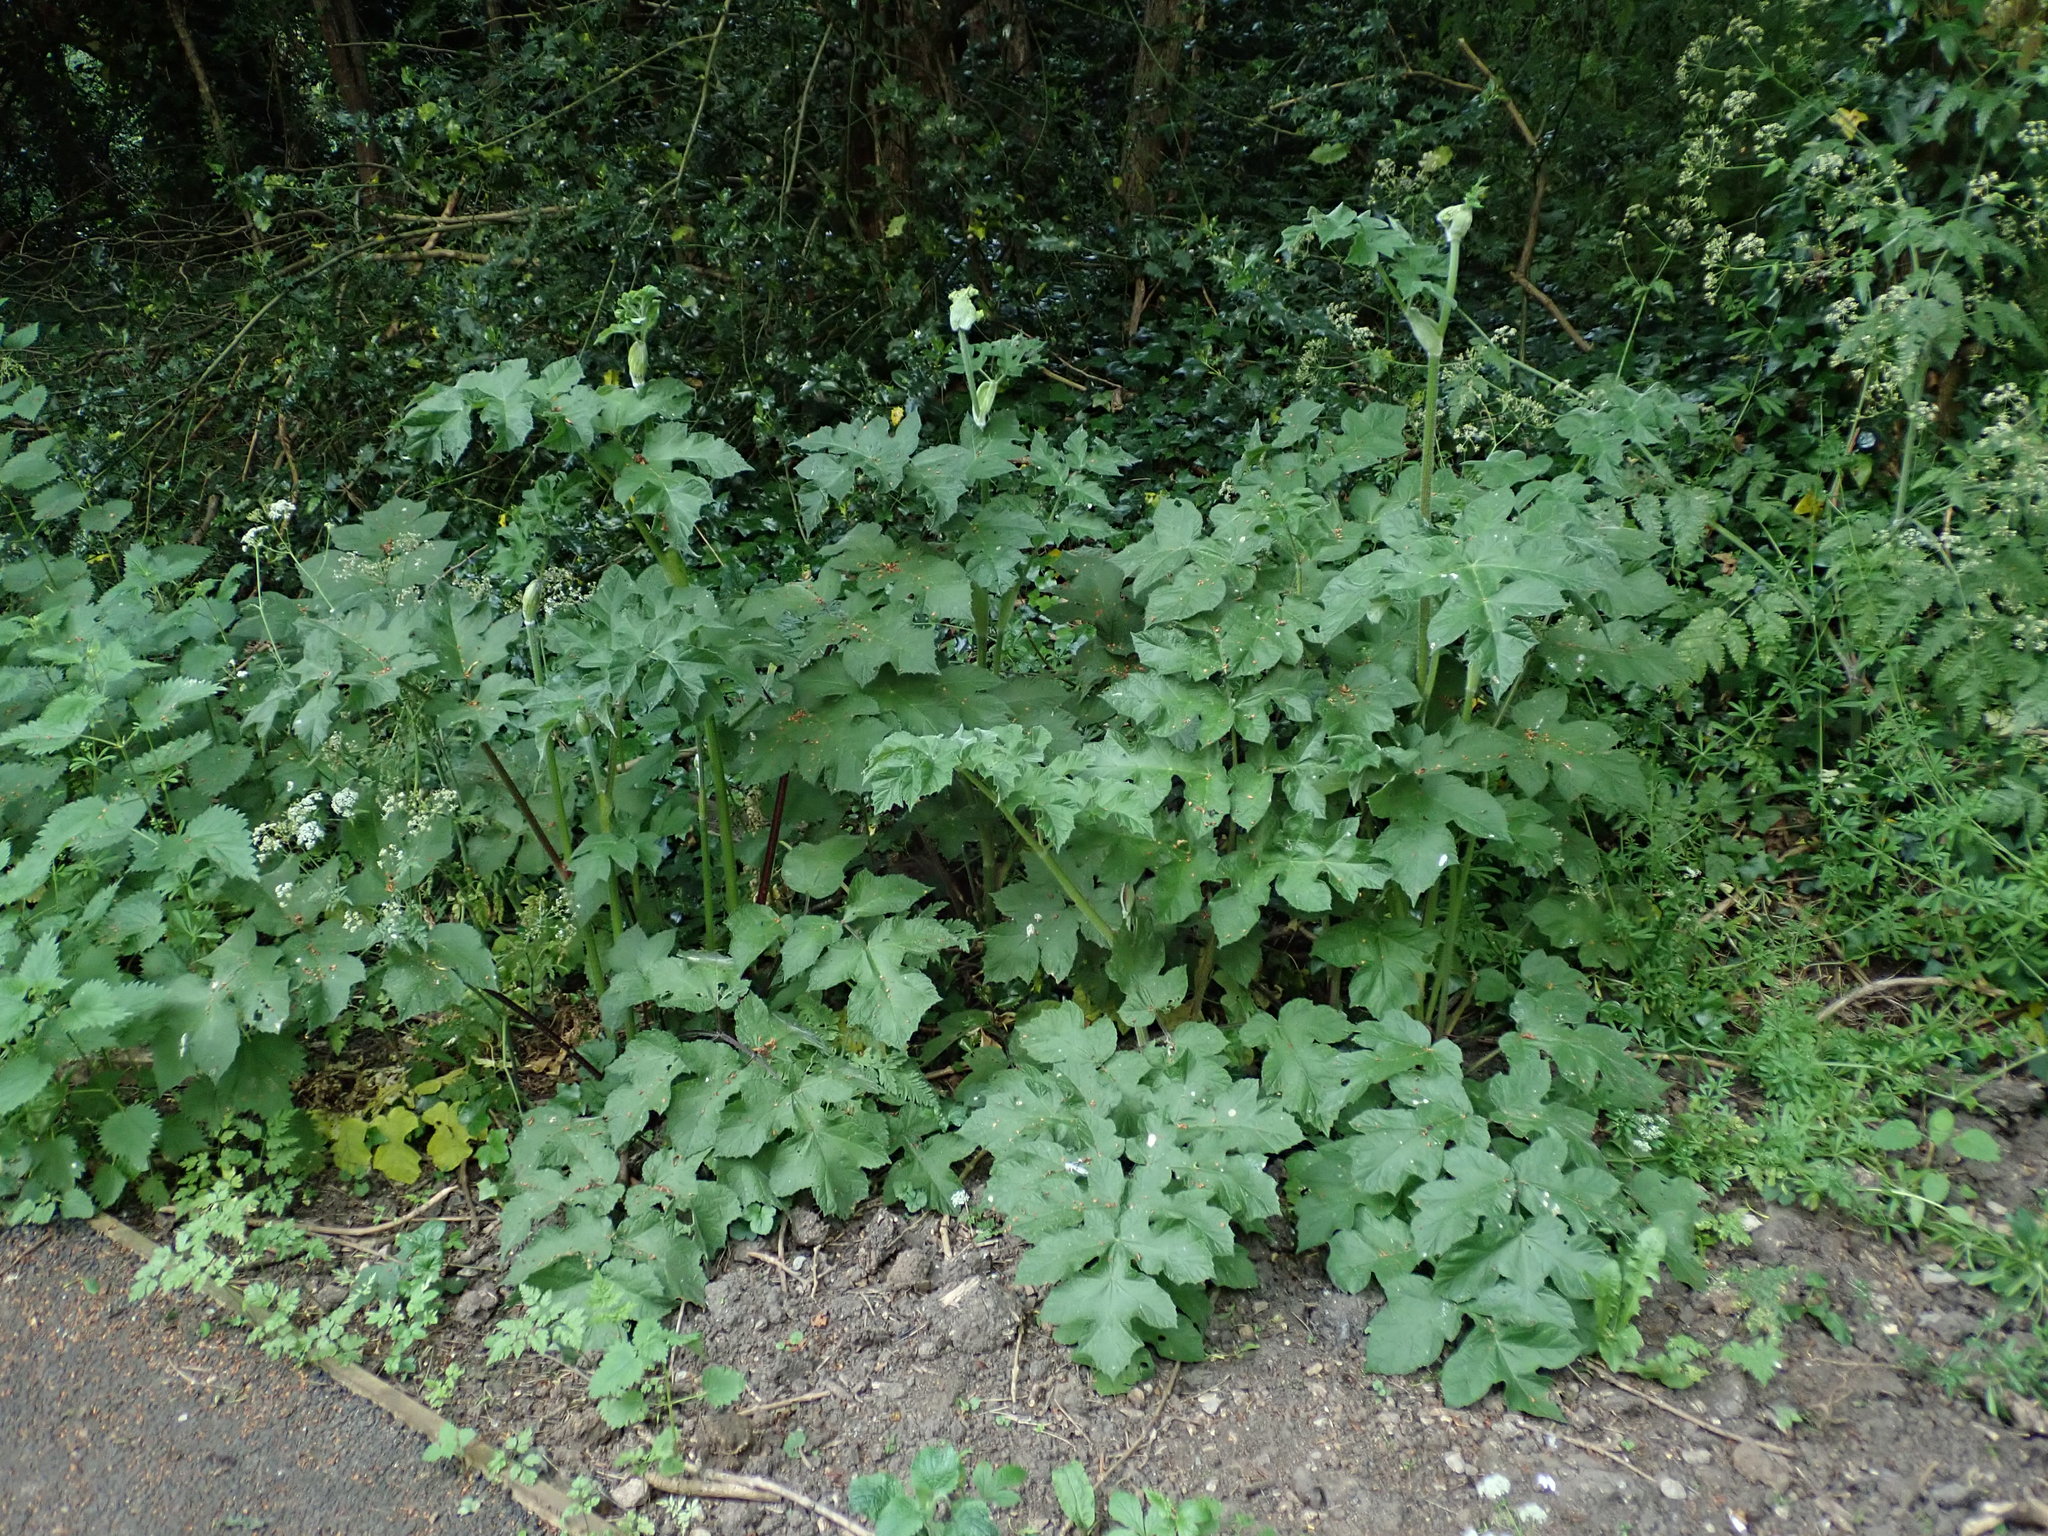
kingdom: Plantae
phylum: Tracheophyta
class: Magnoliopsida
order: Apiales
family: Apiaceae
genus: Heracleum
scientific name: Heracleum sphondylium
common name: Hogweed
